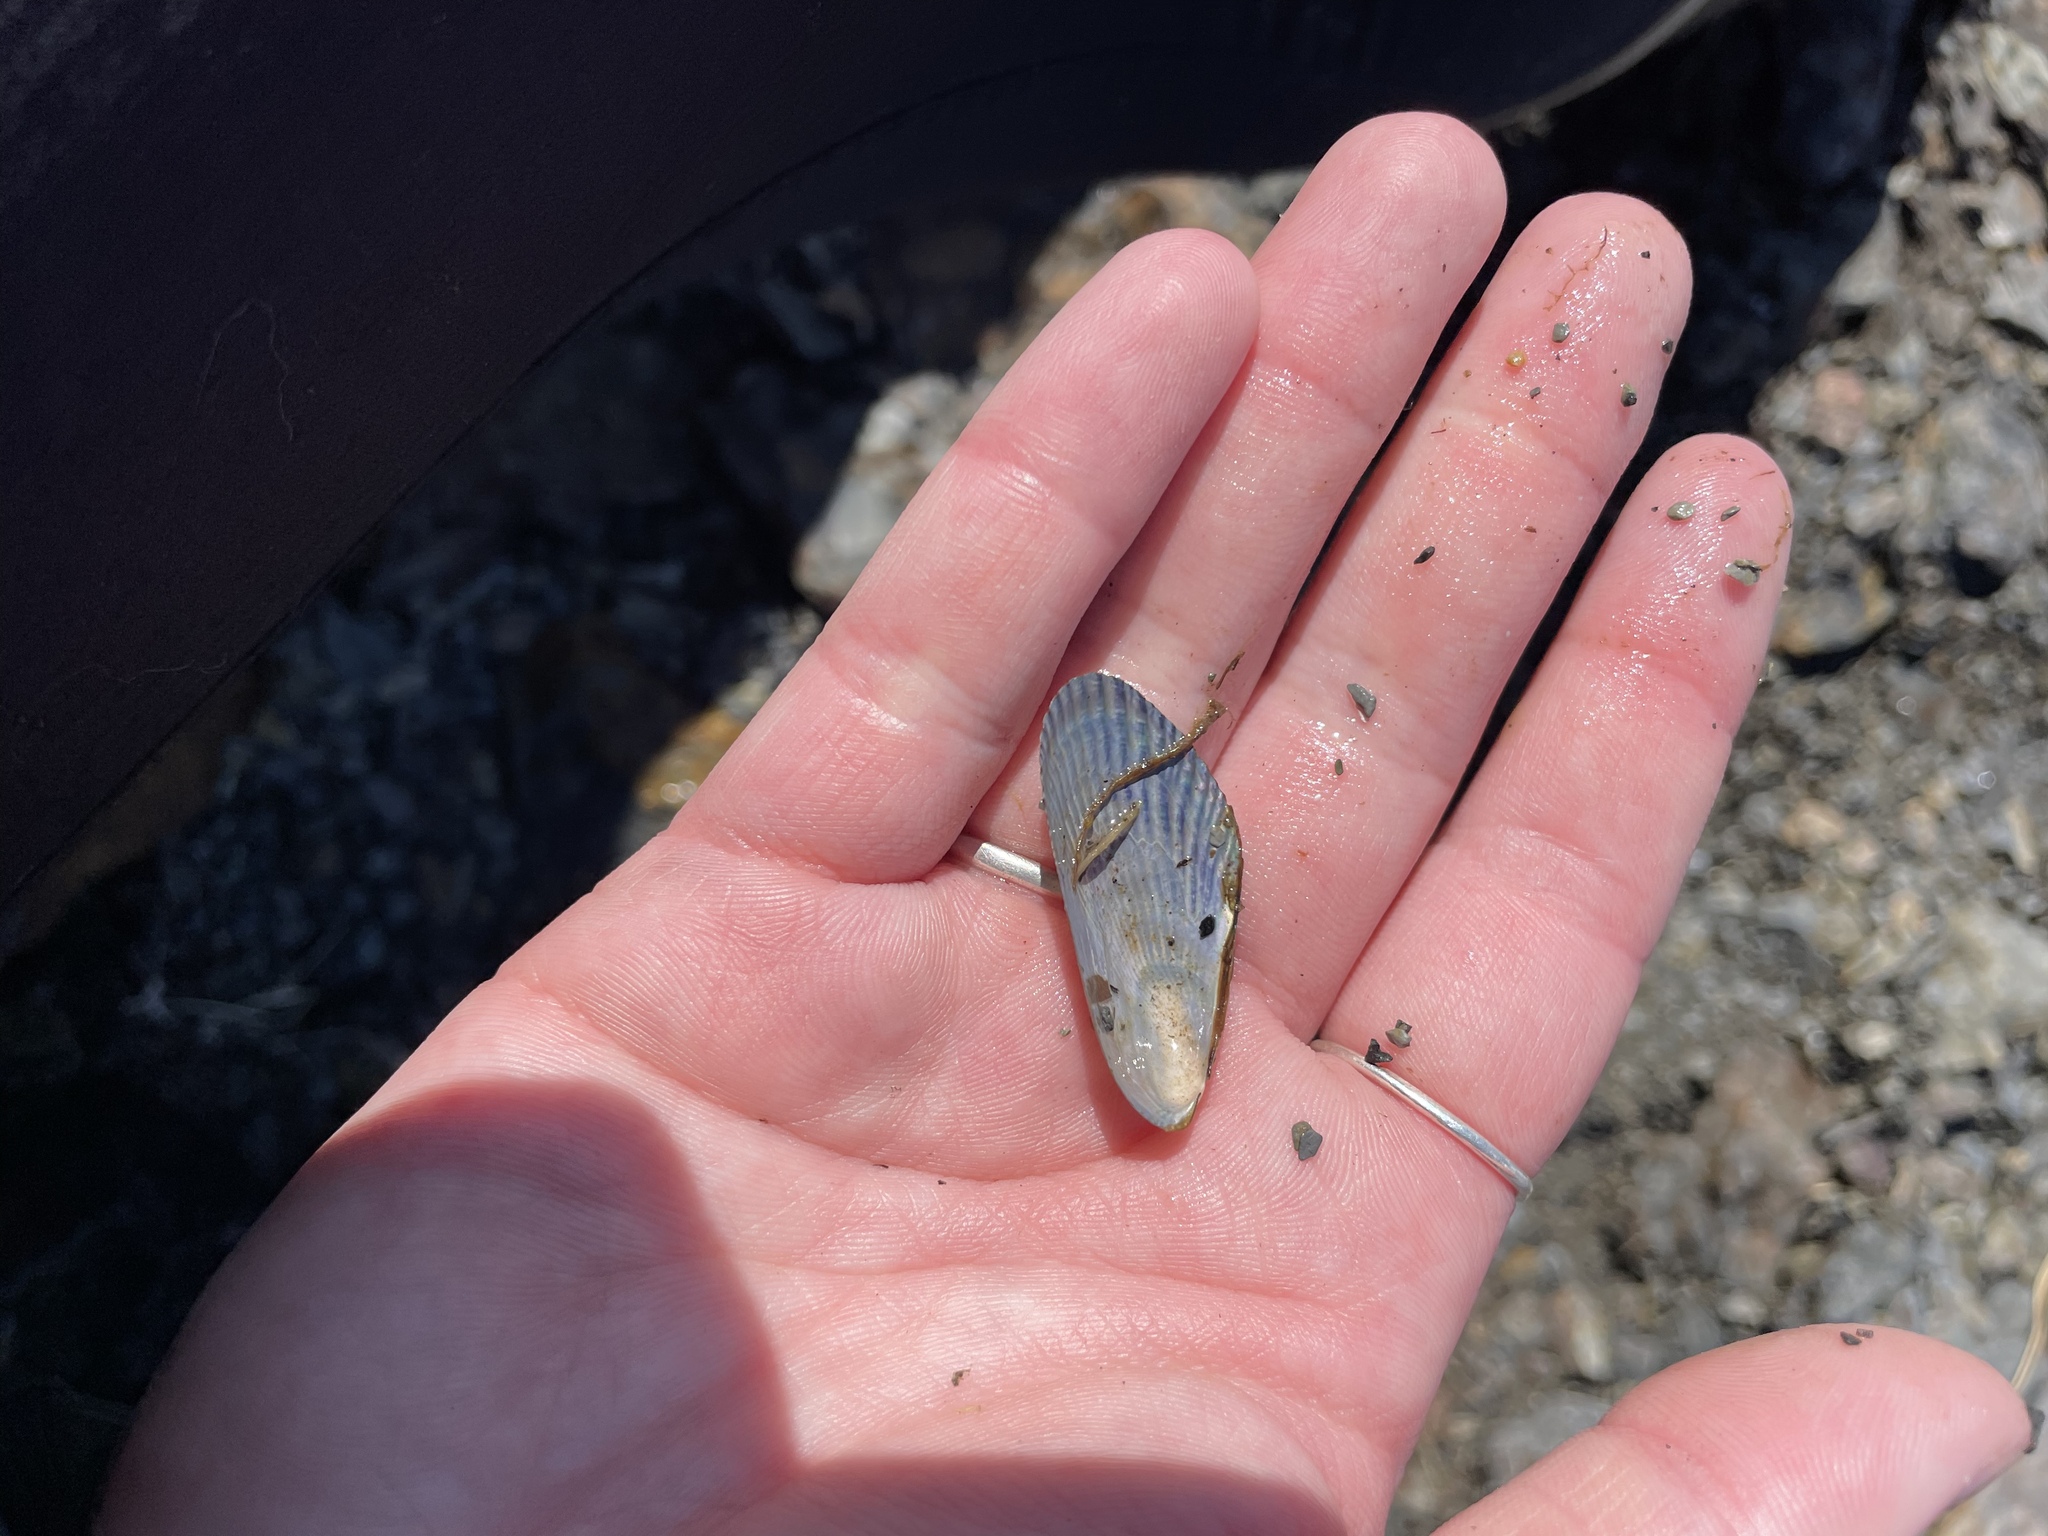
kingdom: Animalia
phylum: Mollusca
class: Bivalvia
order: Mytilida
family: Mytilidae
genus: Geukensia
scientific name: Geukensia demissa
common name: Ribbed mussel
